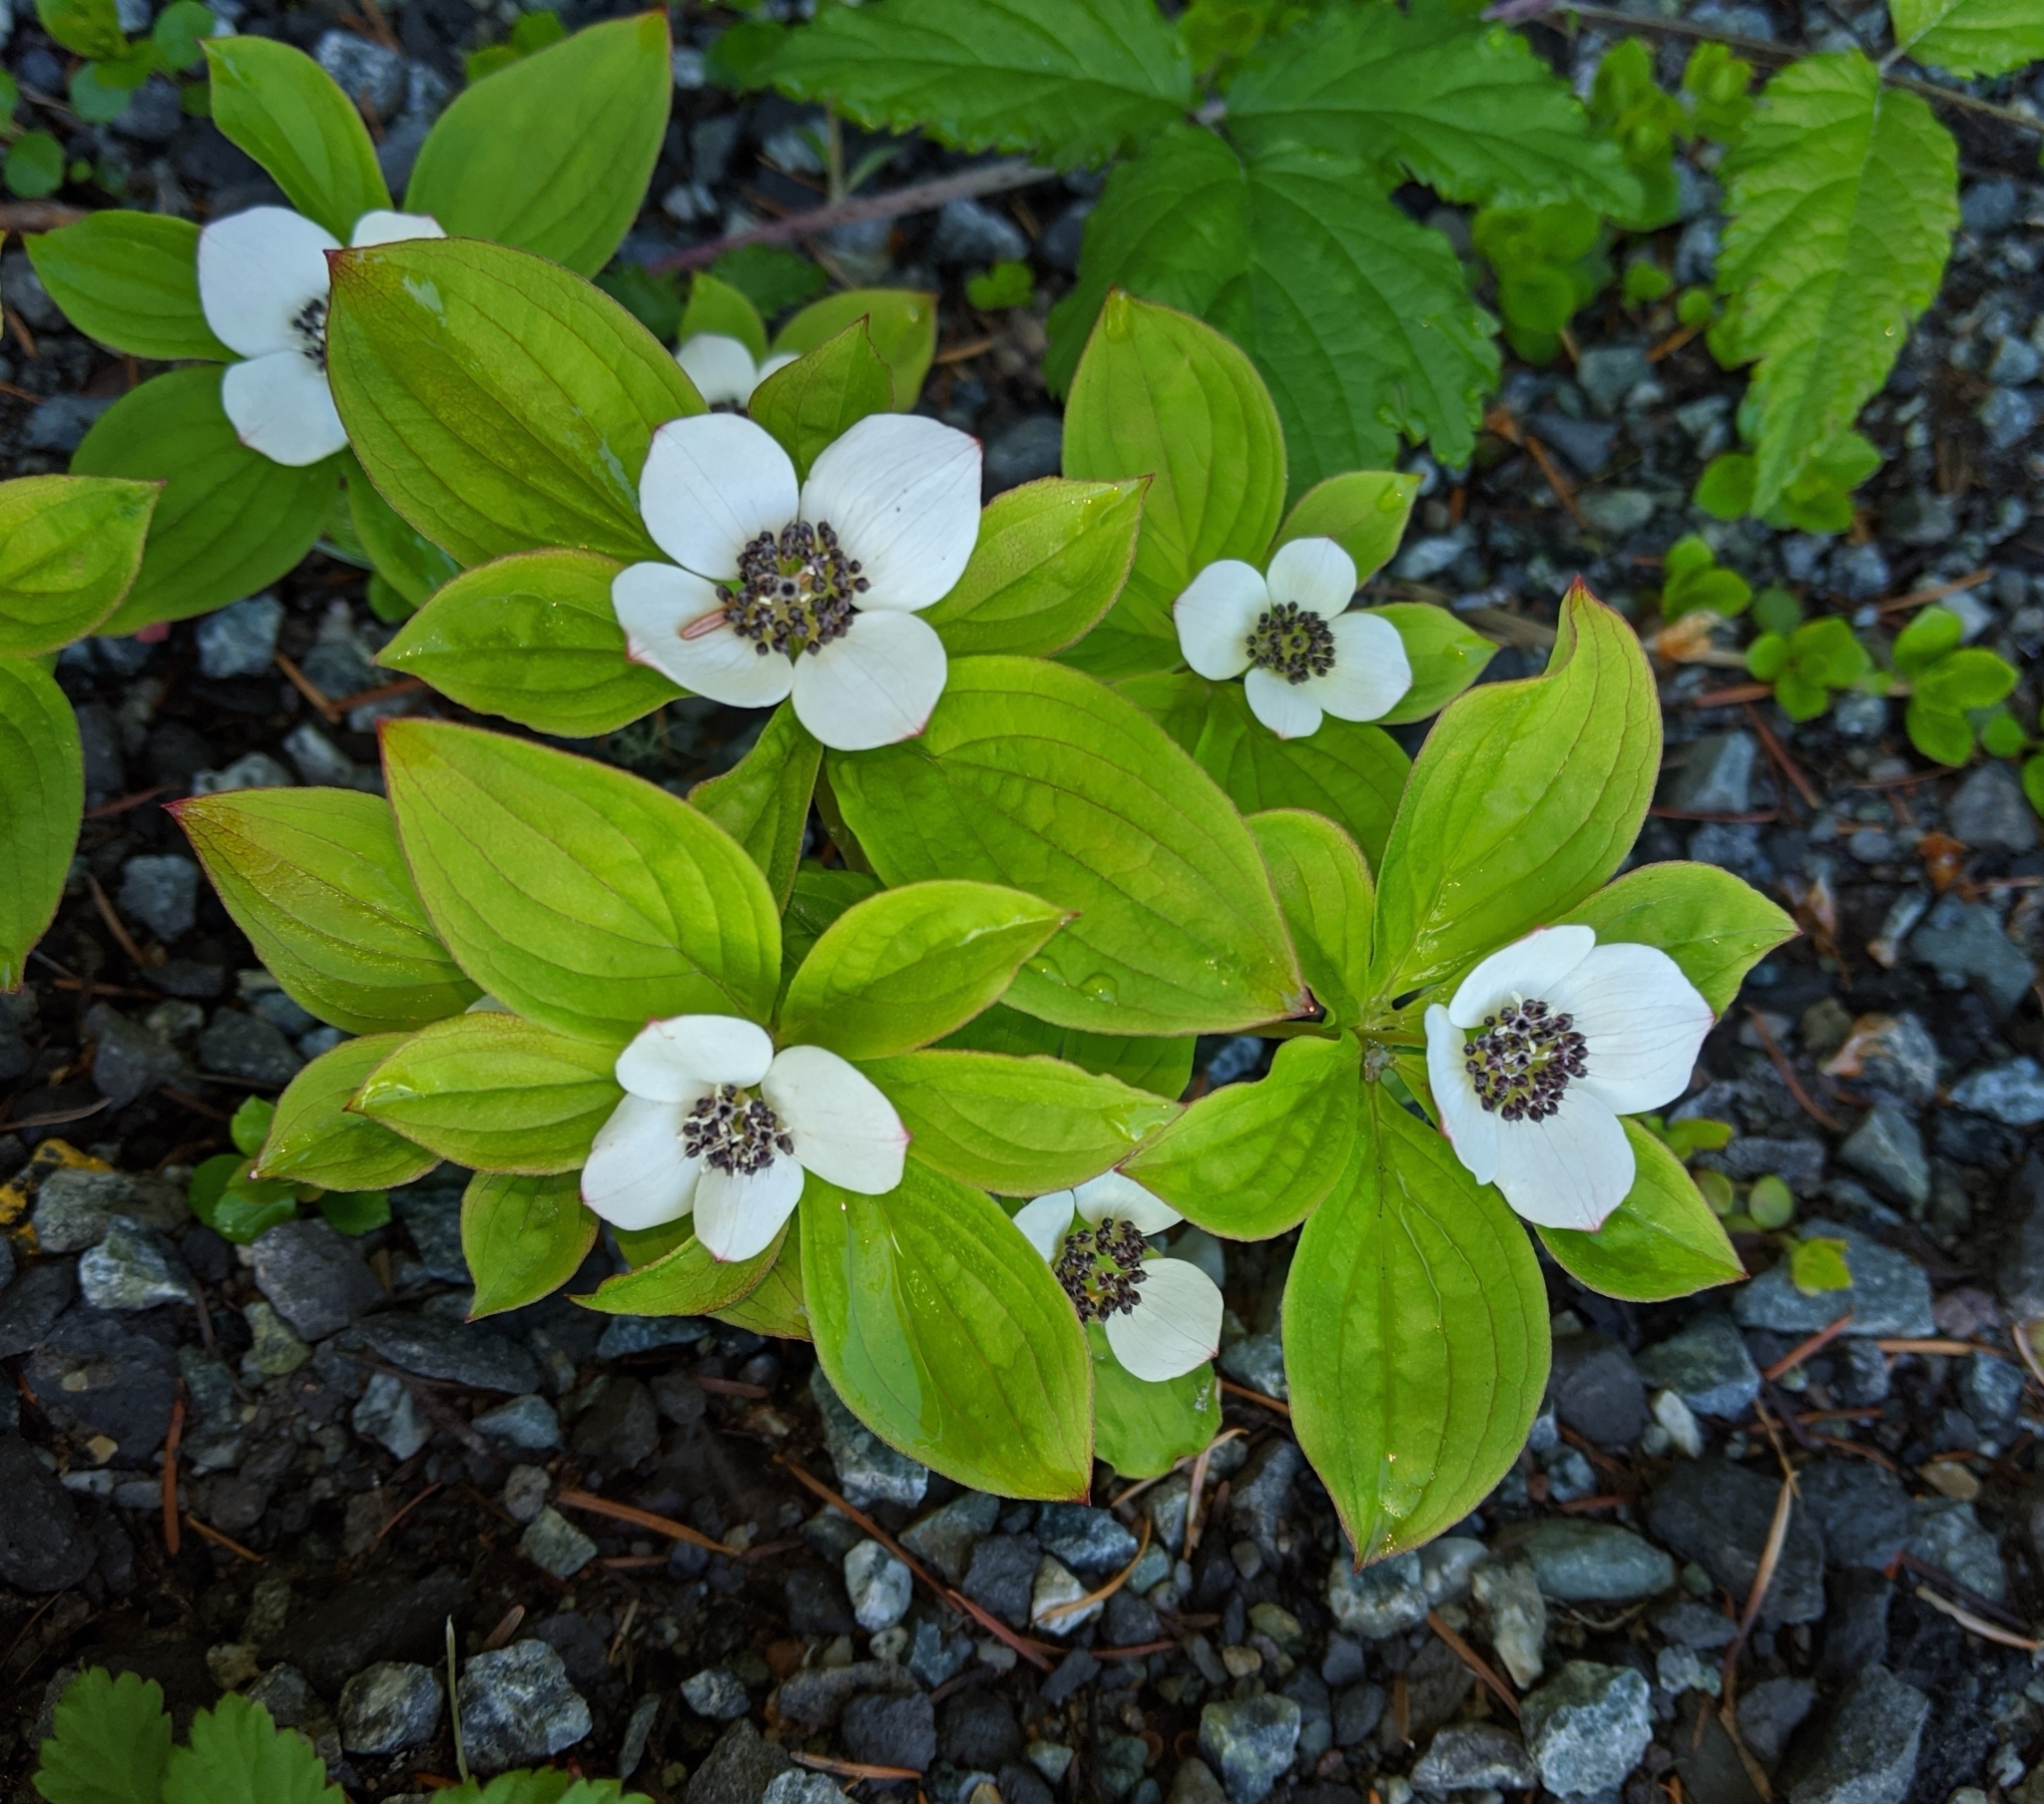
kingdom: Plantae
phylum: Tracheophyta
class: Magnoliopsida
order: Cornales
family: Cornaceae
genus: Cornus
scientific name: Cornus unalaschkensis
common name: Alaska bunchberry
